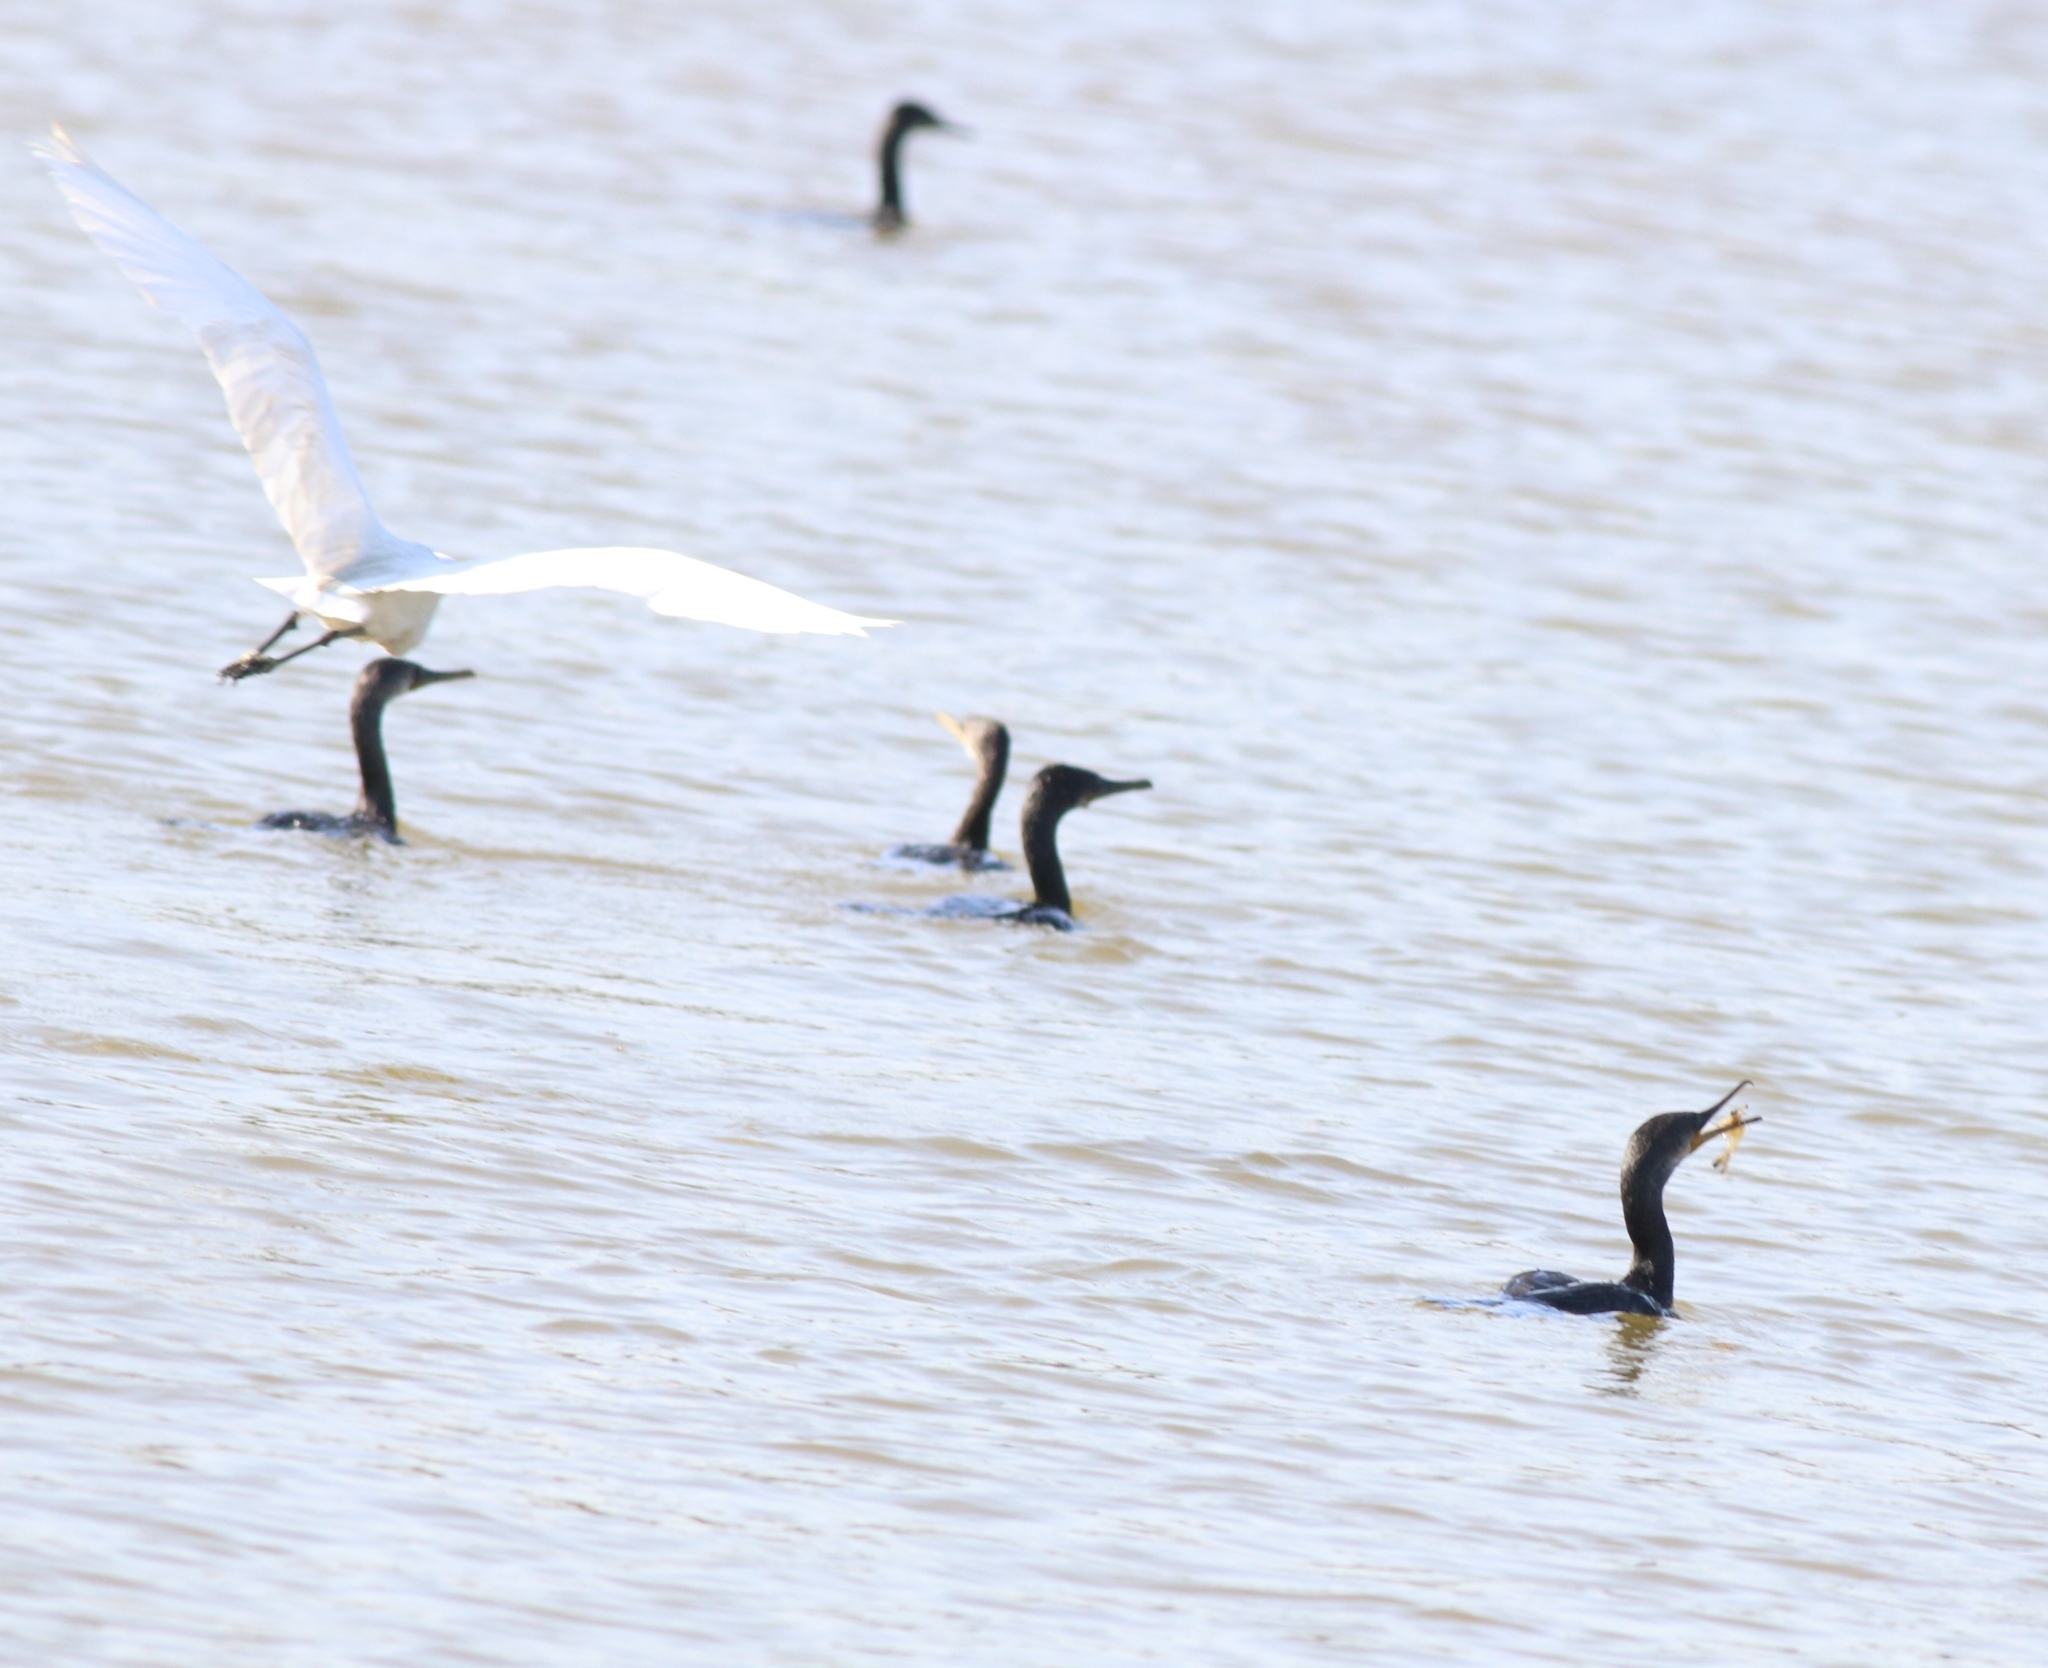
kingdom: Animalia
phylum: Chordata
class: Aves
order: Suliformes
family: Phalacrocoracidae
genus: Phalacrocorax
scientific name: Phalacrocorax fuscicollis
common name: Indian cormorant
